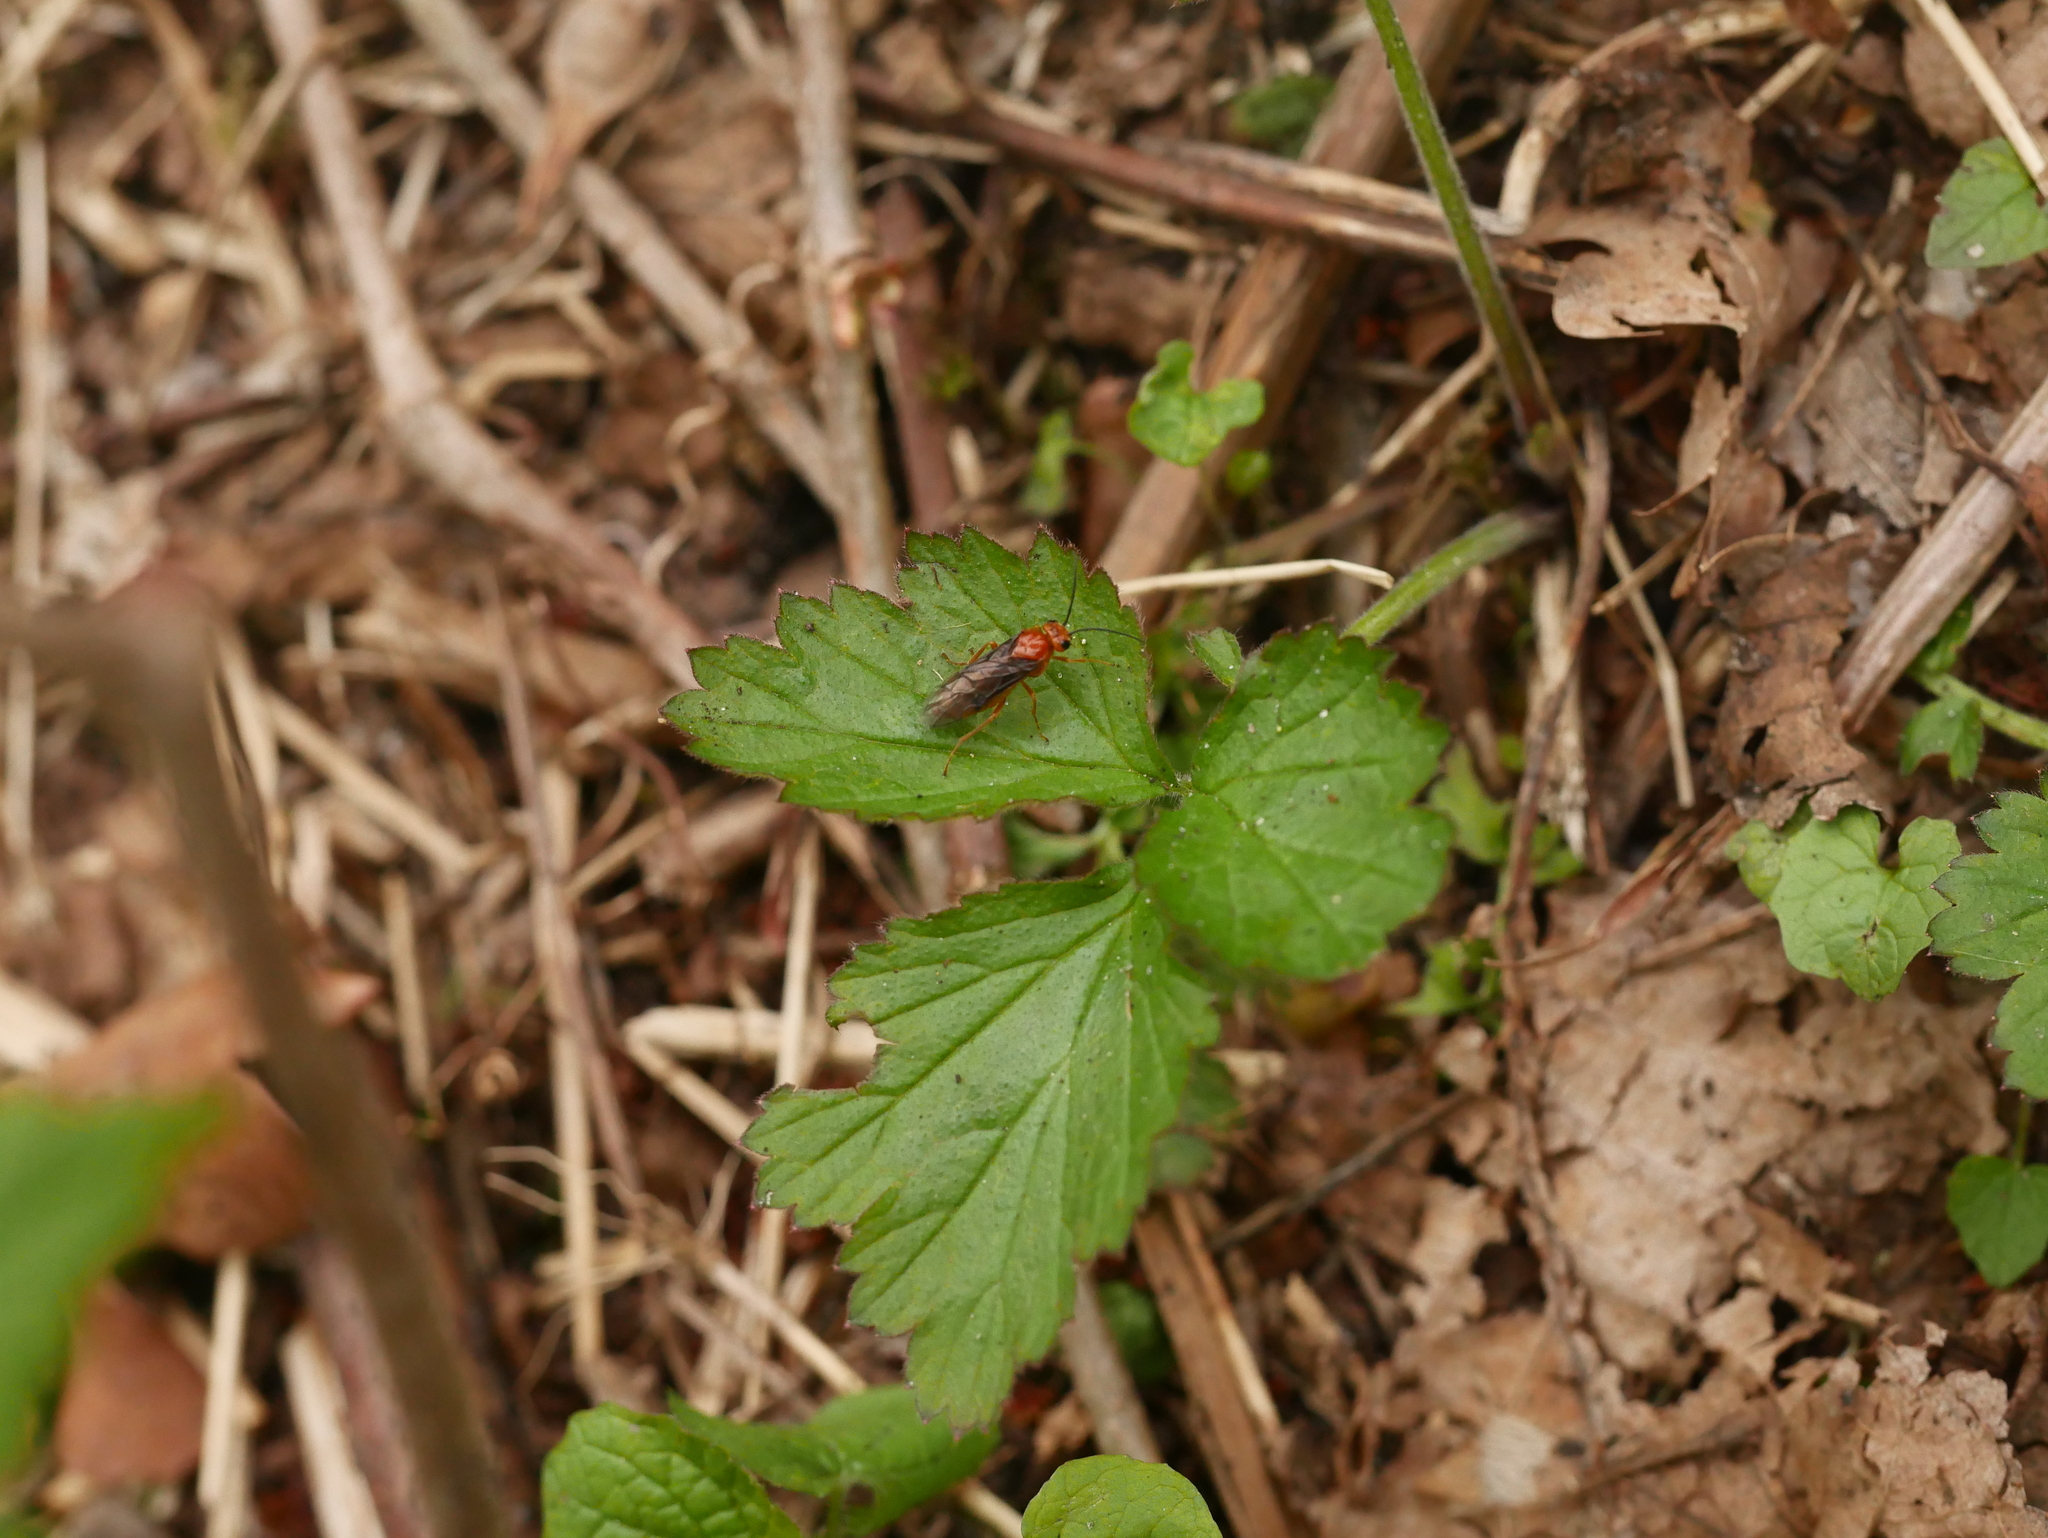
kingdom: Plantae
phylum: Tracheophyta
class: Magnoliopsida
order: Rosales
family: Rosaceae
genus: Geum
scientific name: Geum urbanum
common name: Wood avens
